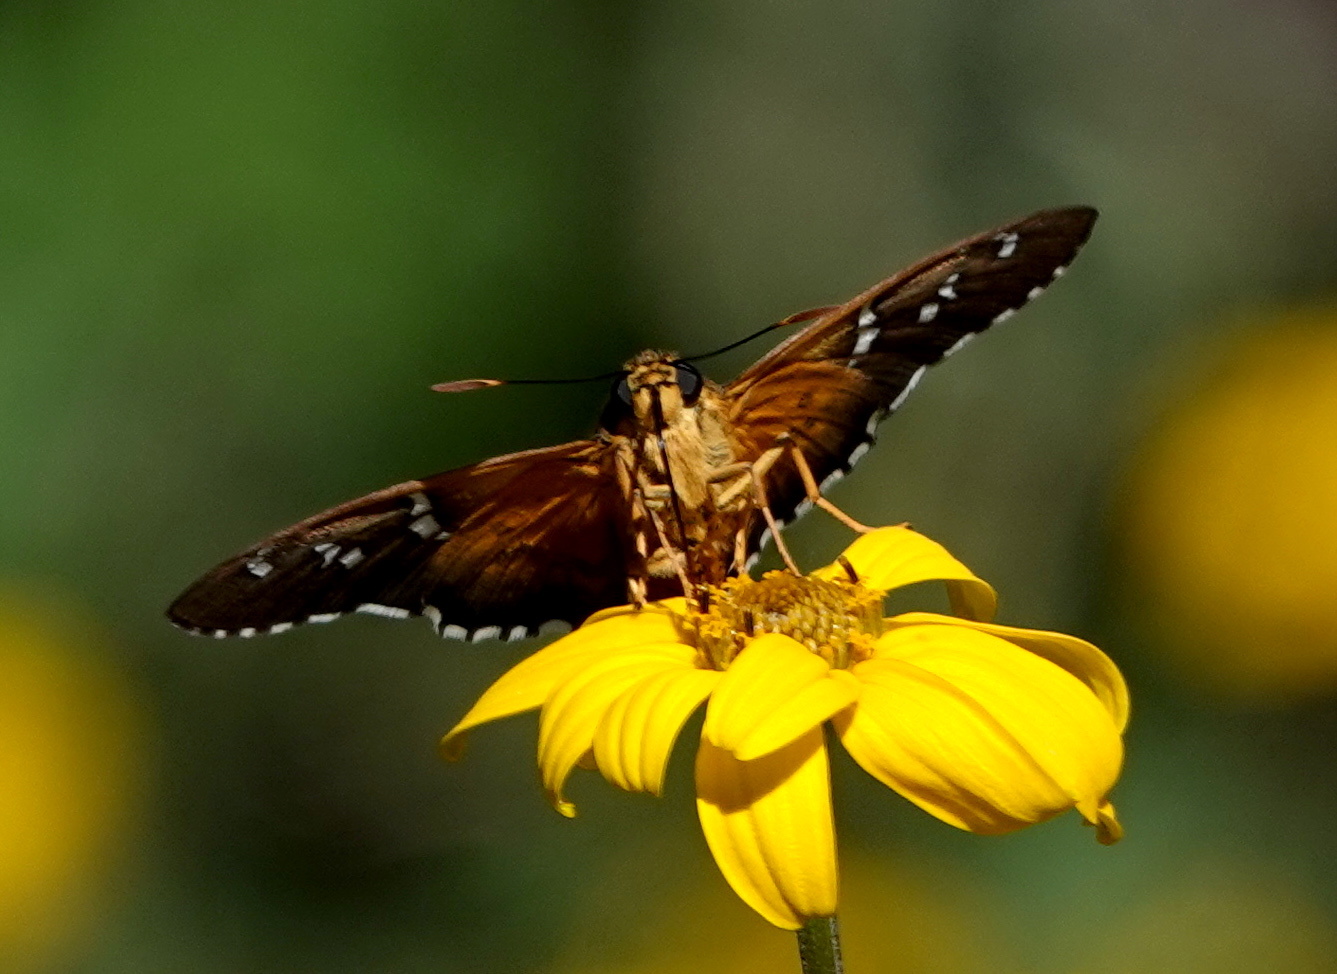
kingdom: Animalia
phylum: Arthropoda
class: Insecta
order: Lepidoptera
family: Hesperiidae
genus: Pyrrhopyge
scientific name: Pyrrhopyge araxes
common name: Dull firetip
